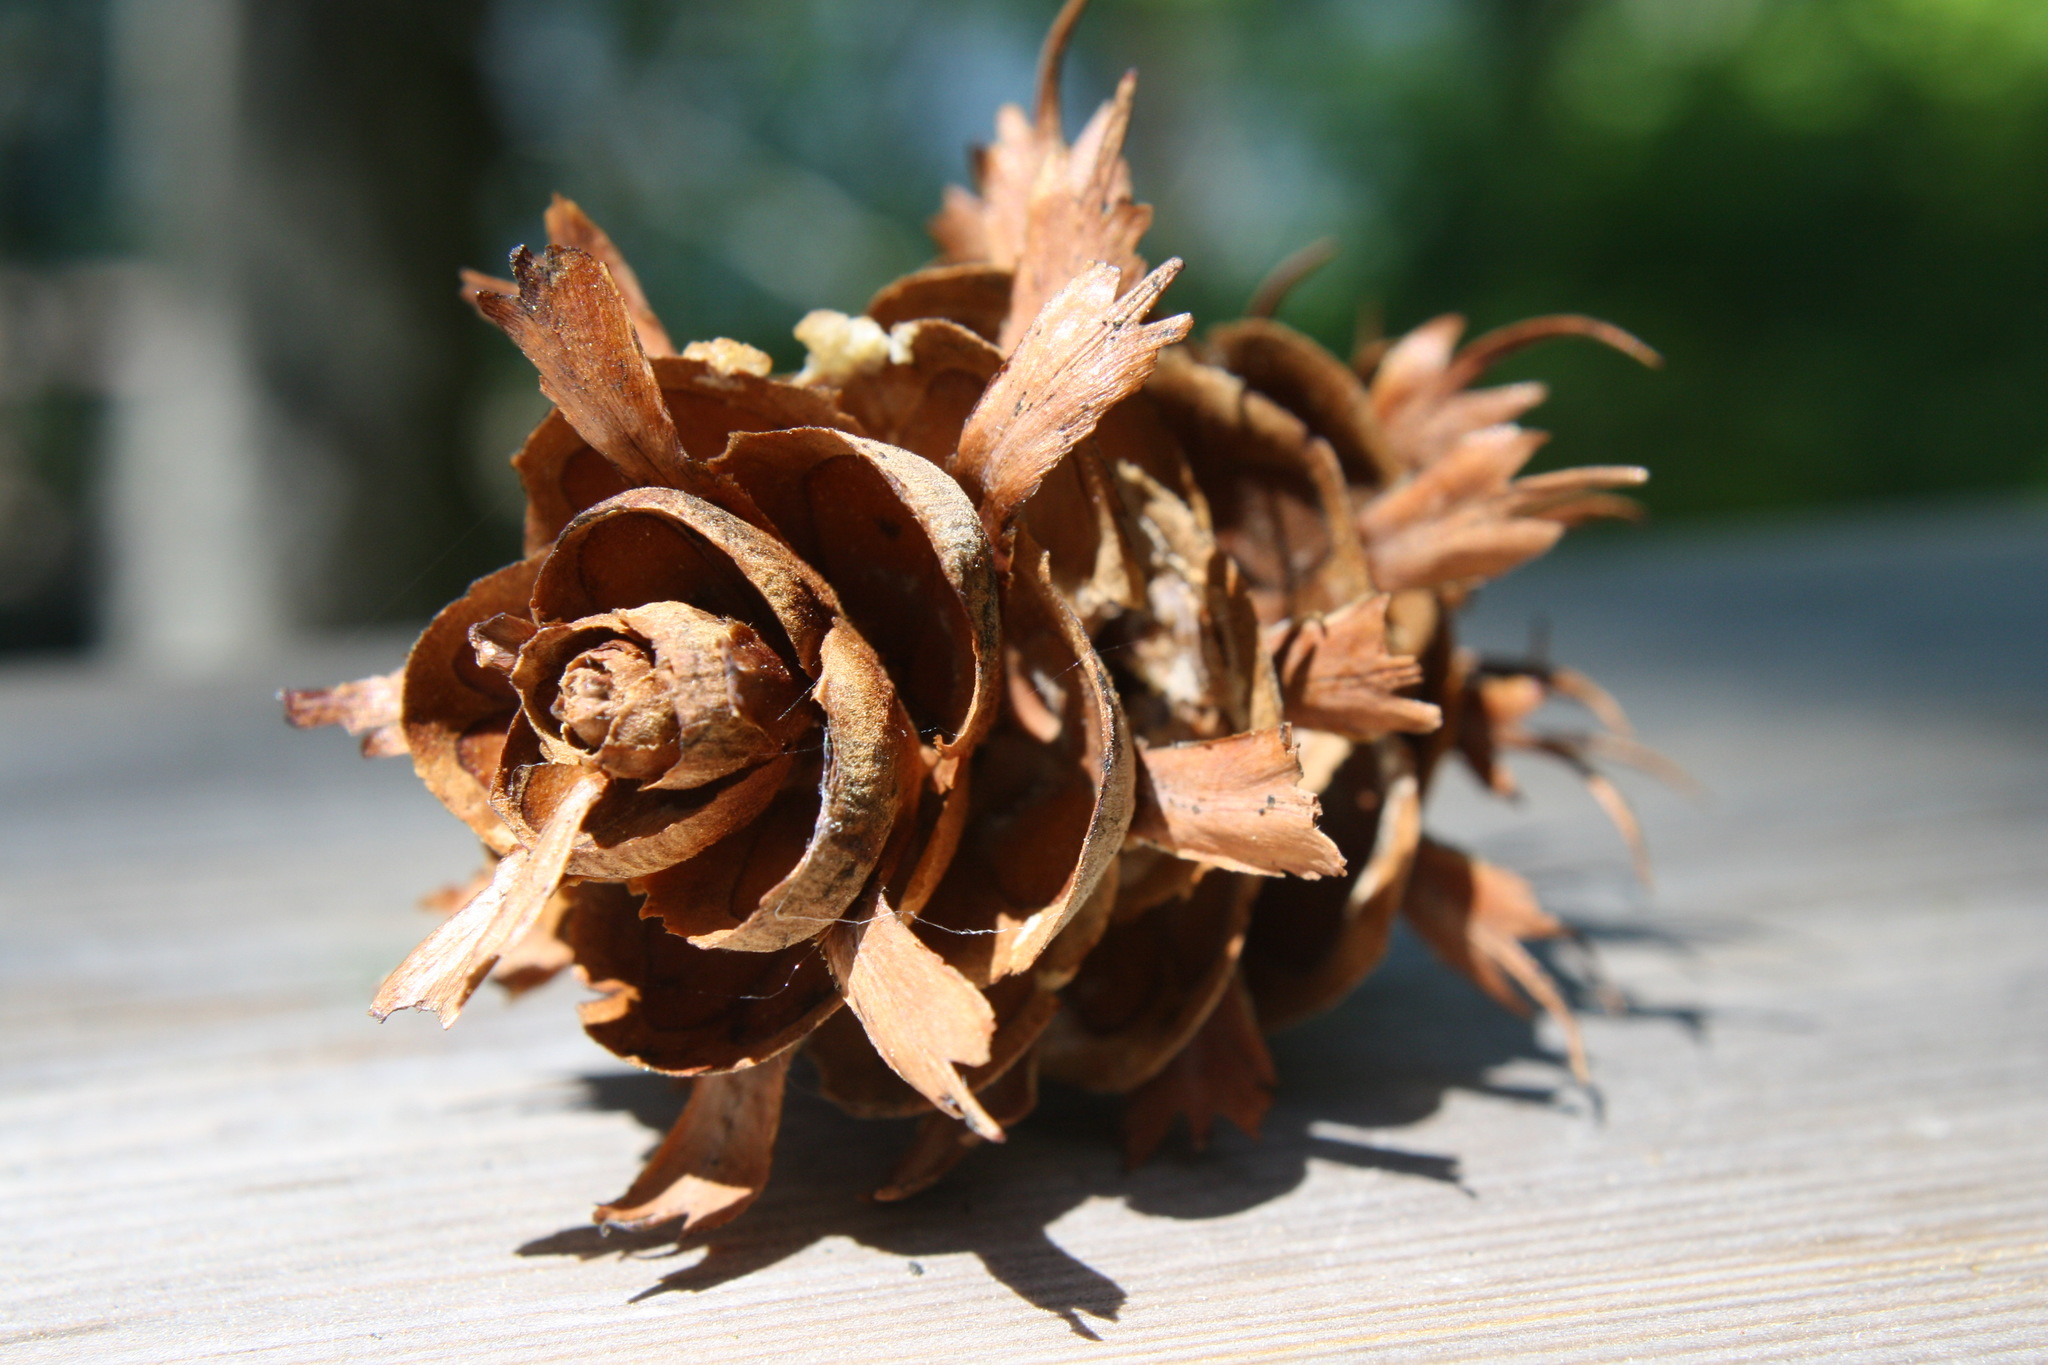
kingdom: Plantae
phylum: Tracheophyta
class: Pinopsida
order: Pinales
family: Pinaceae
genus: Pseudotsuga
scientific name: Pseudotsuga menziesii
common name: Douglas fir
